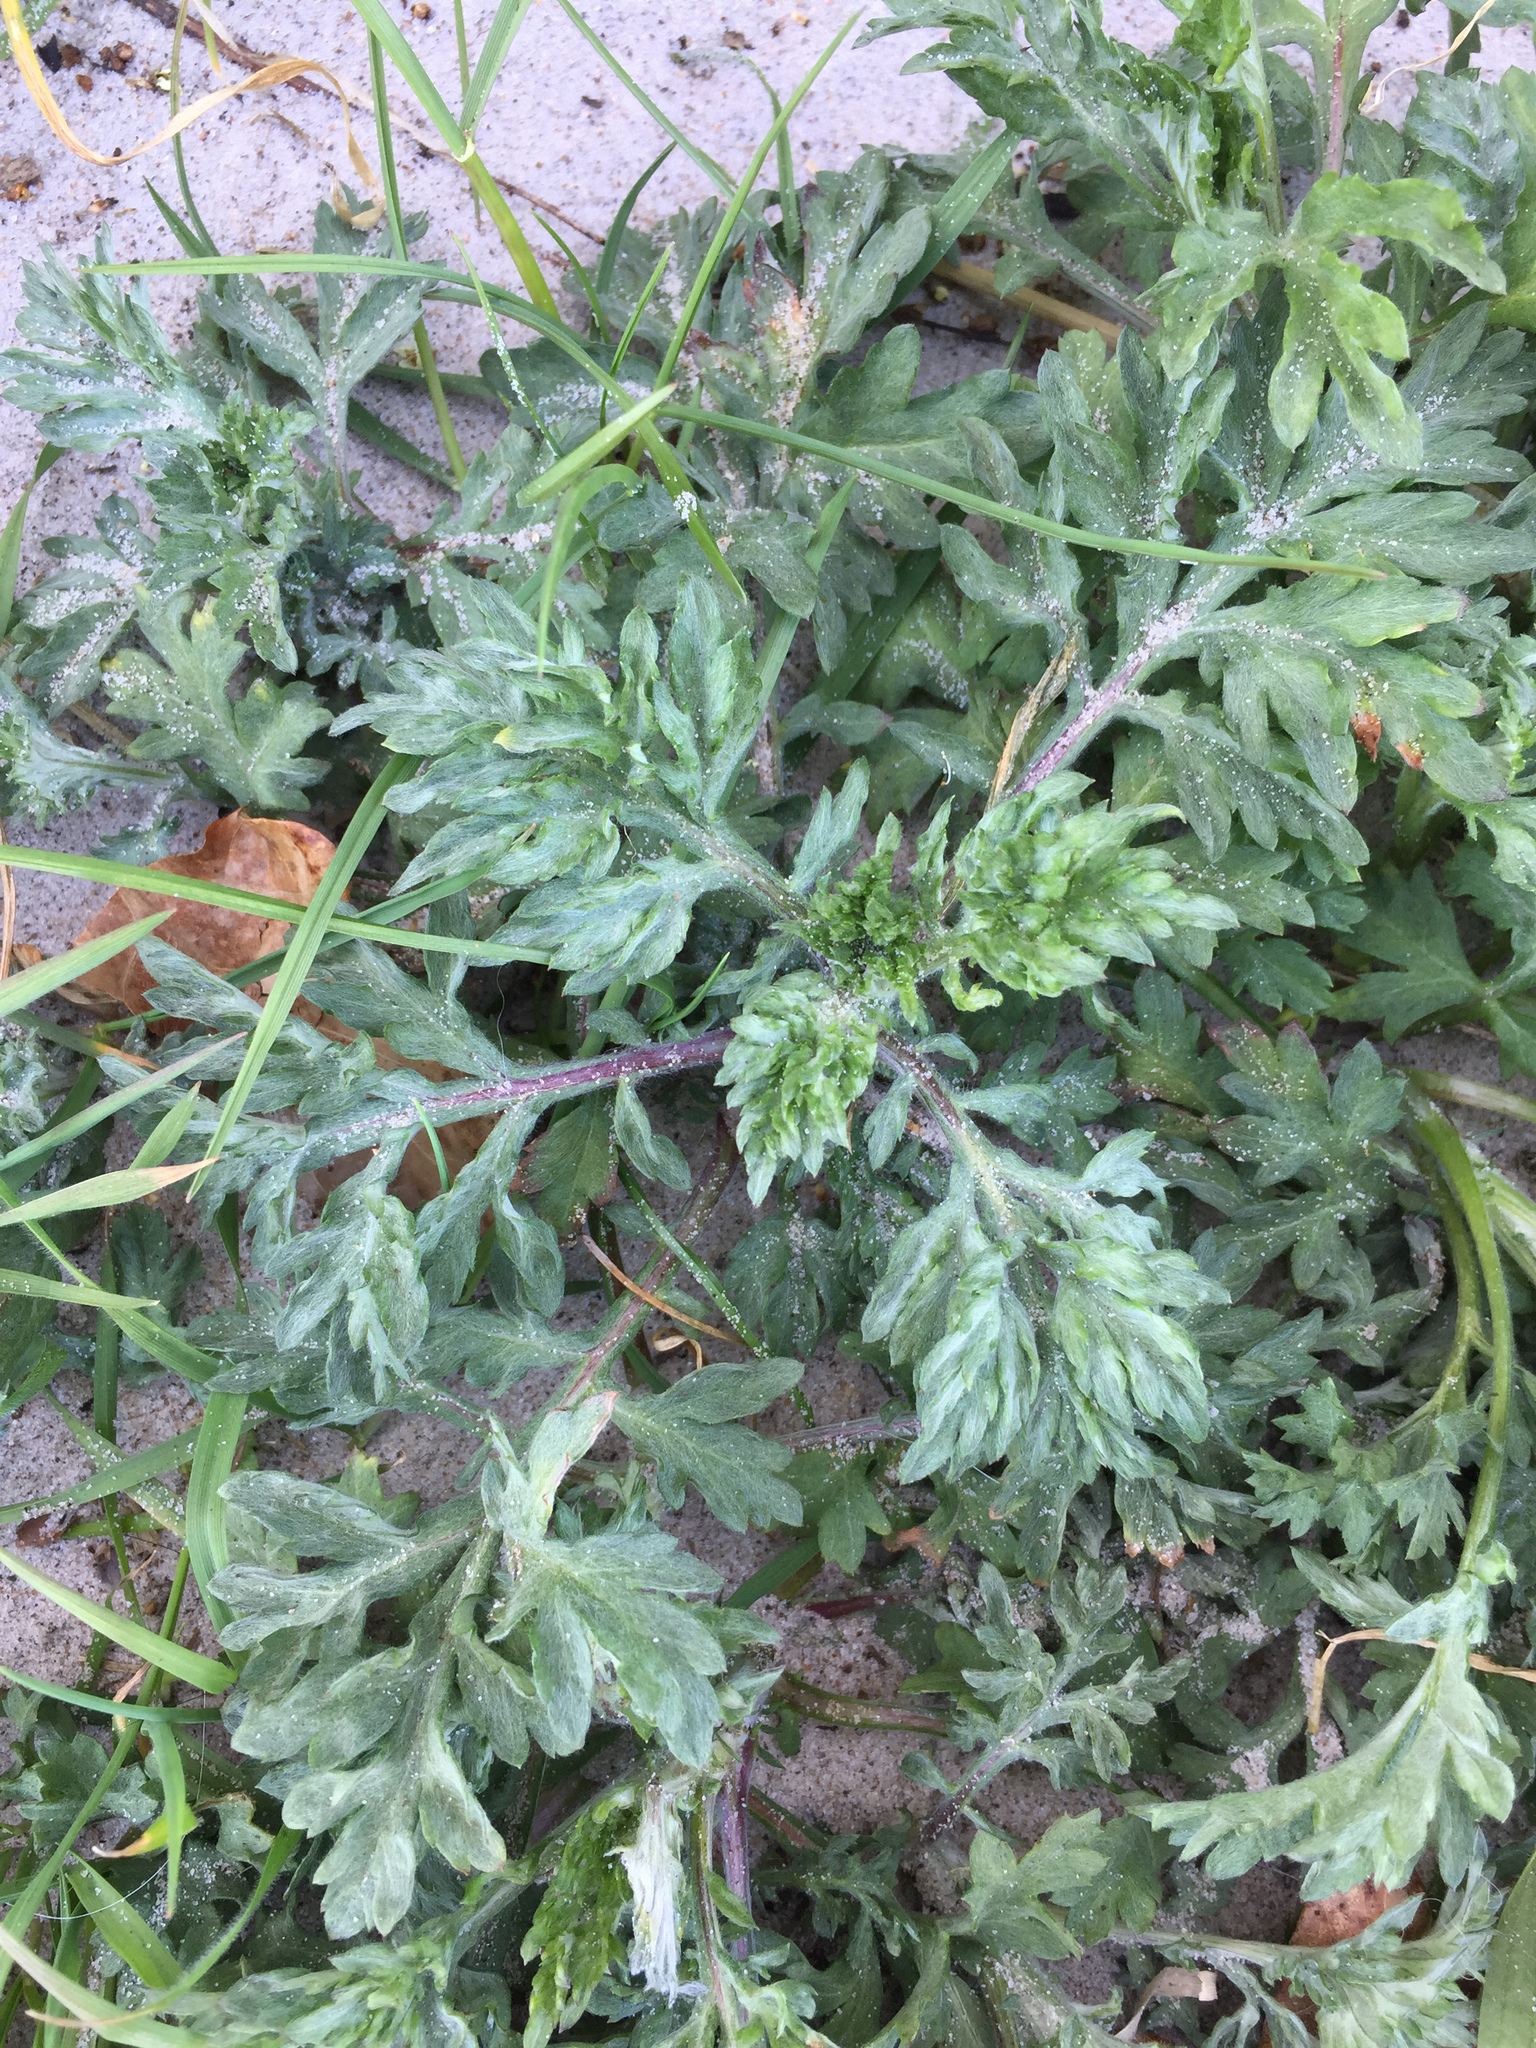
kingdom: Plantae
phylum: Tracheophyta
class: Magnoliopsida
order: Asterales
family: Asteraceae
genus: Artemisia
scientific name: Artemisia vulgaris
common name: Mugwort
